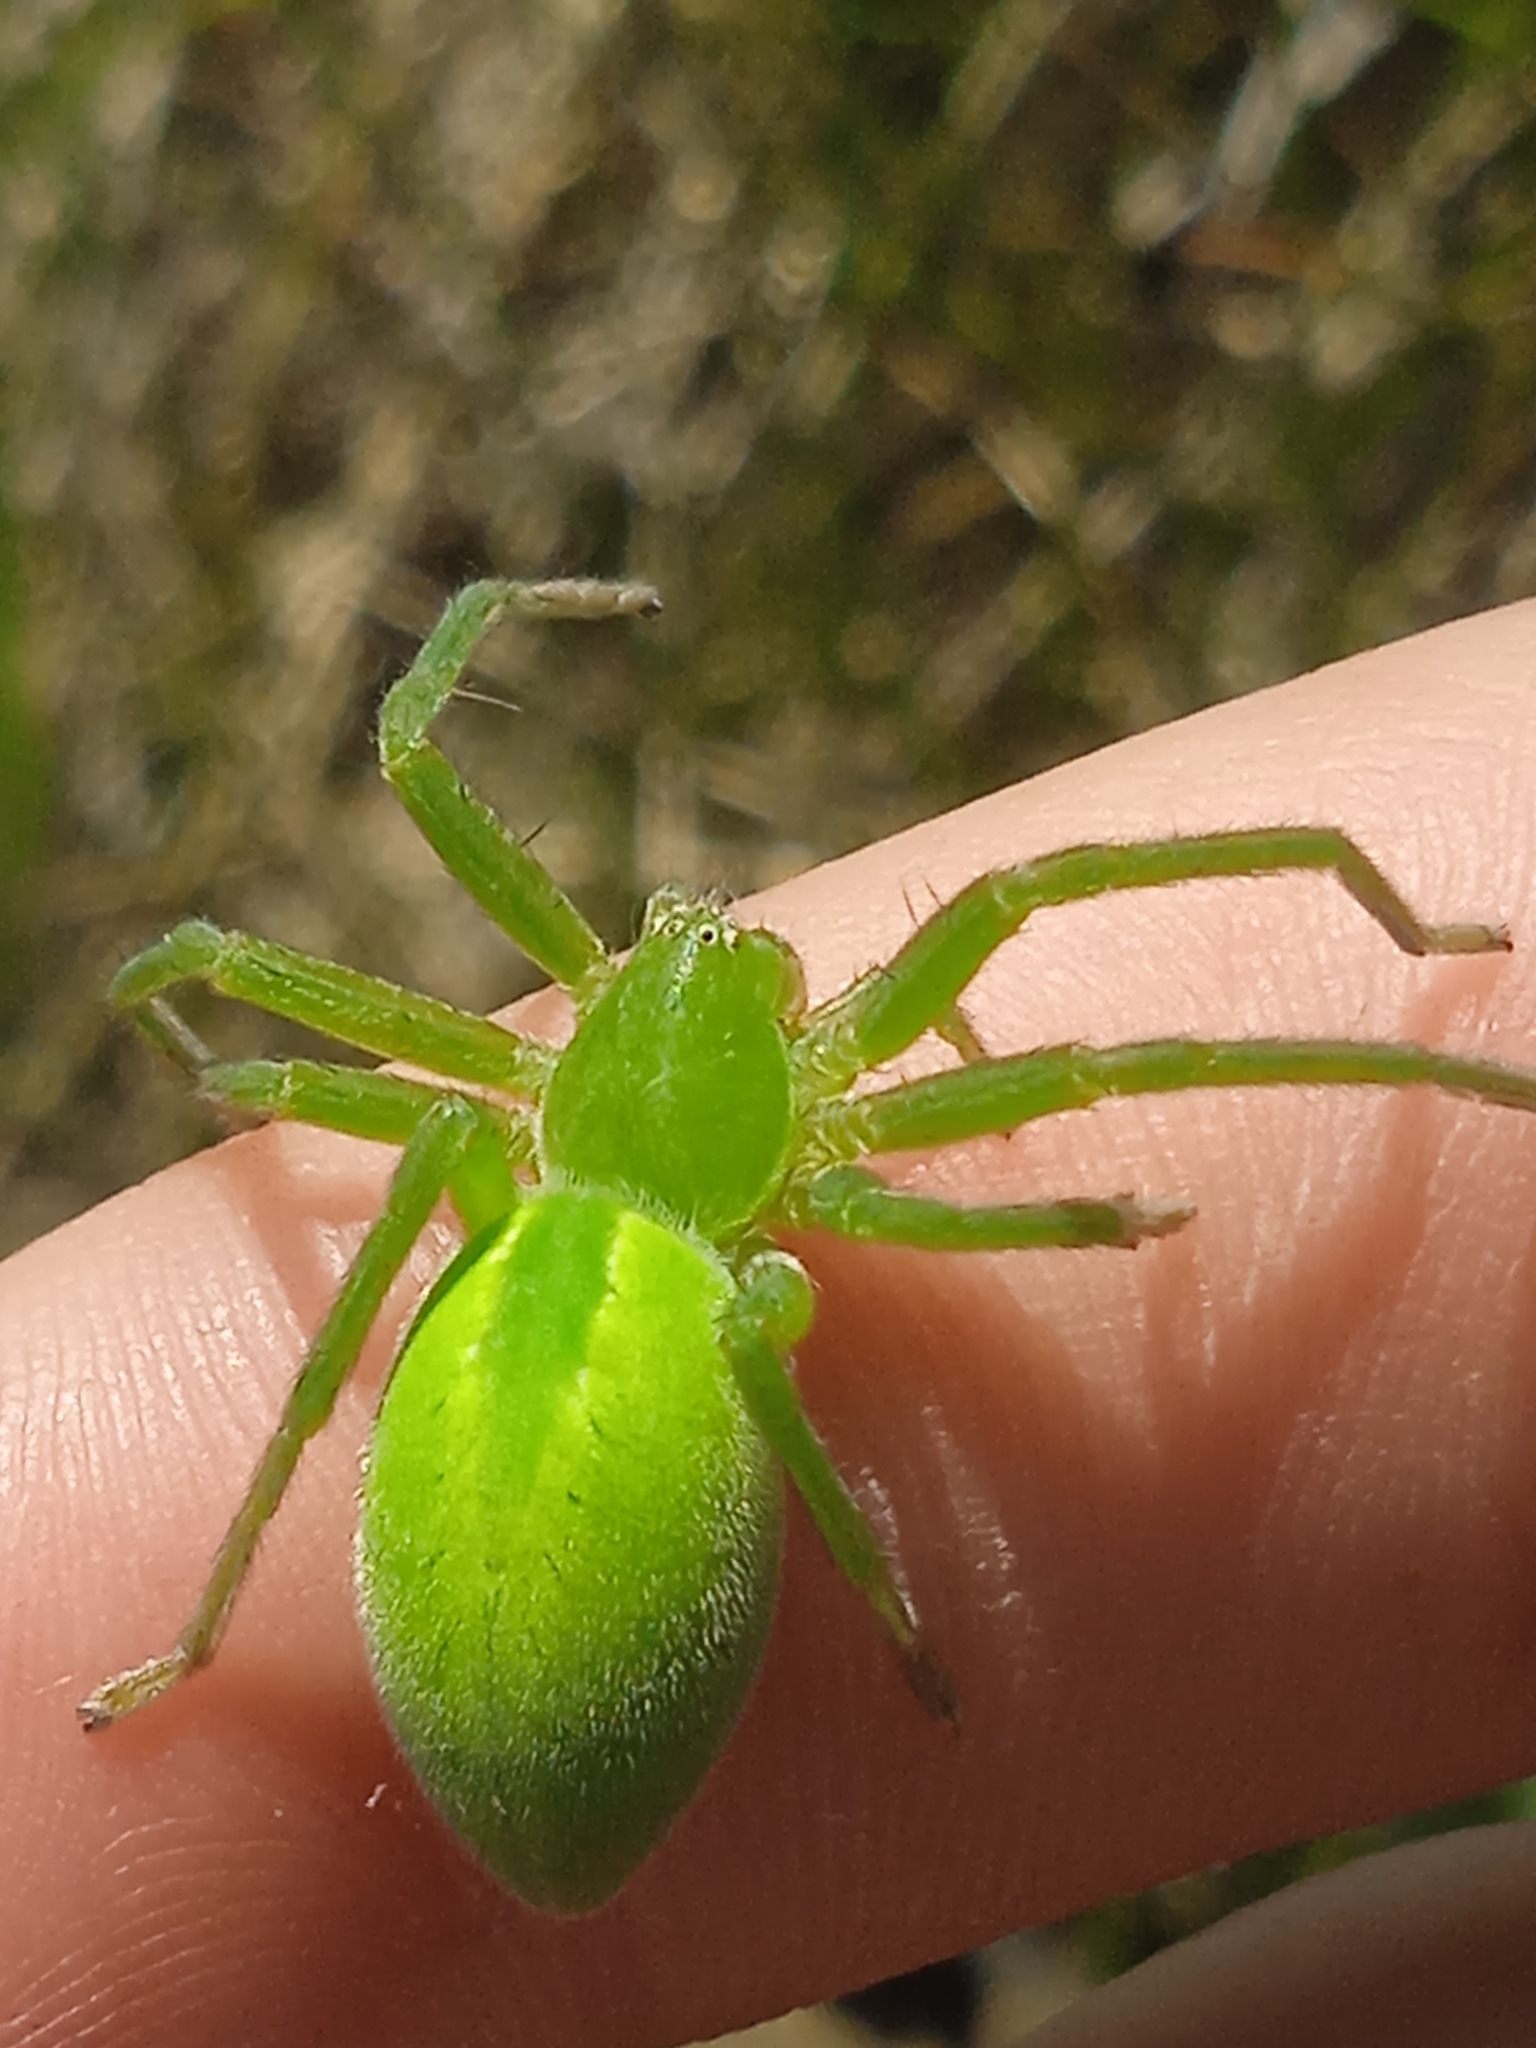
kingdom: Animalia
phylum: Arthropoda
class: Arachnida
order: Araneae
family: Sparassidae
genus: Micrommata
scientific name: Micrommata virescens
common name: Green spider
